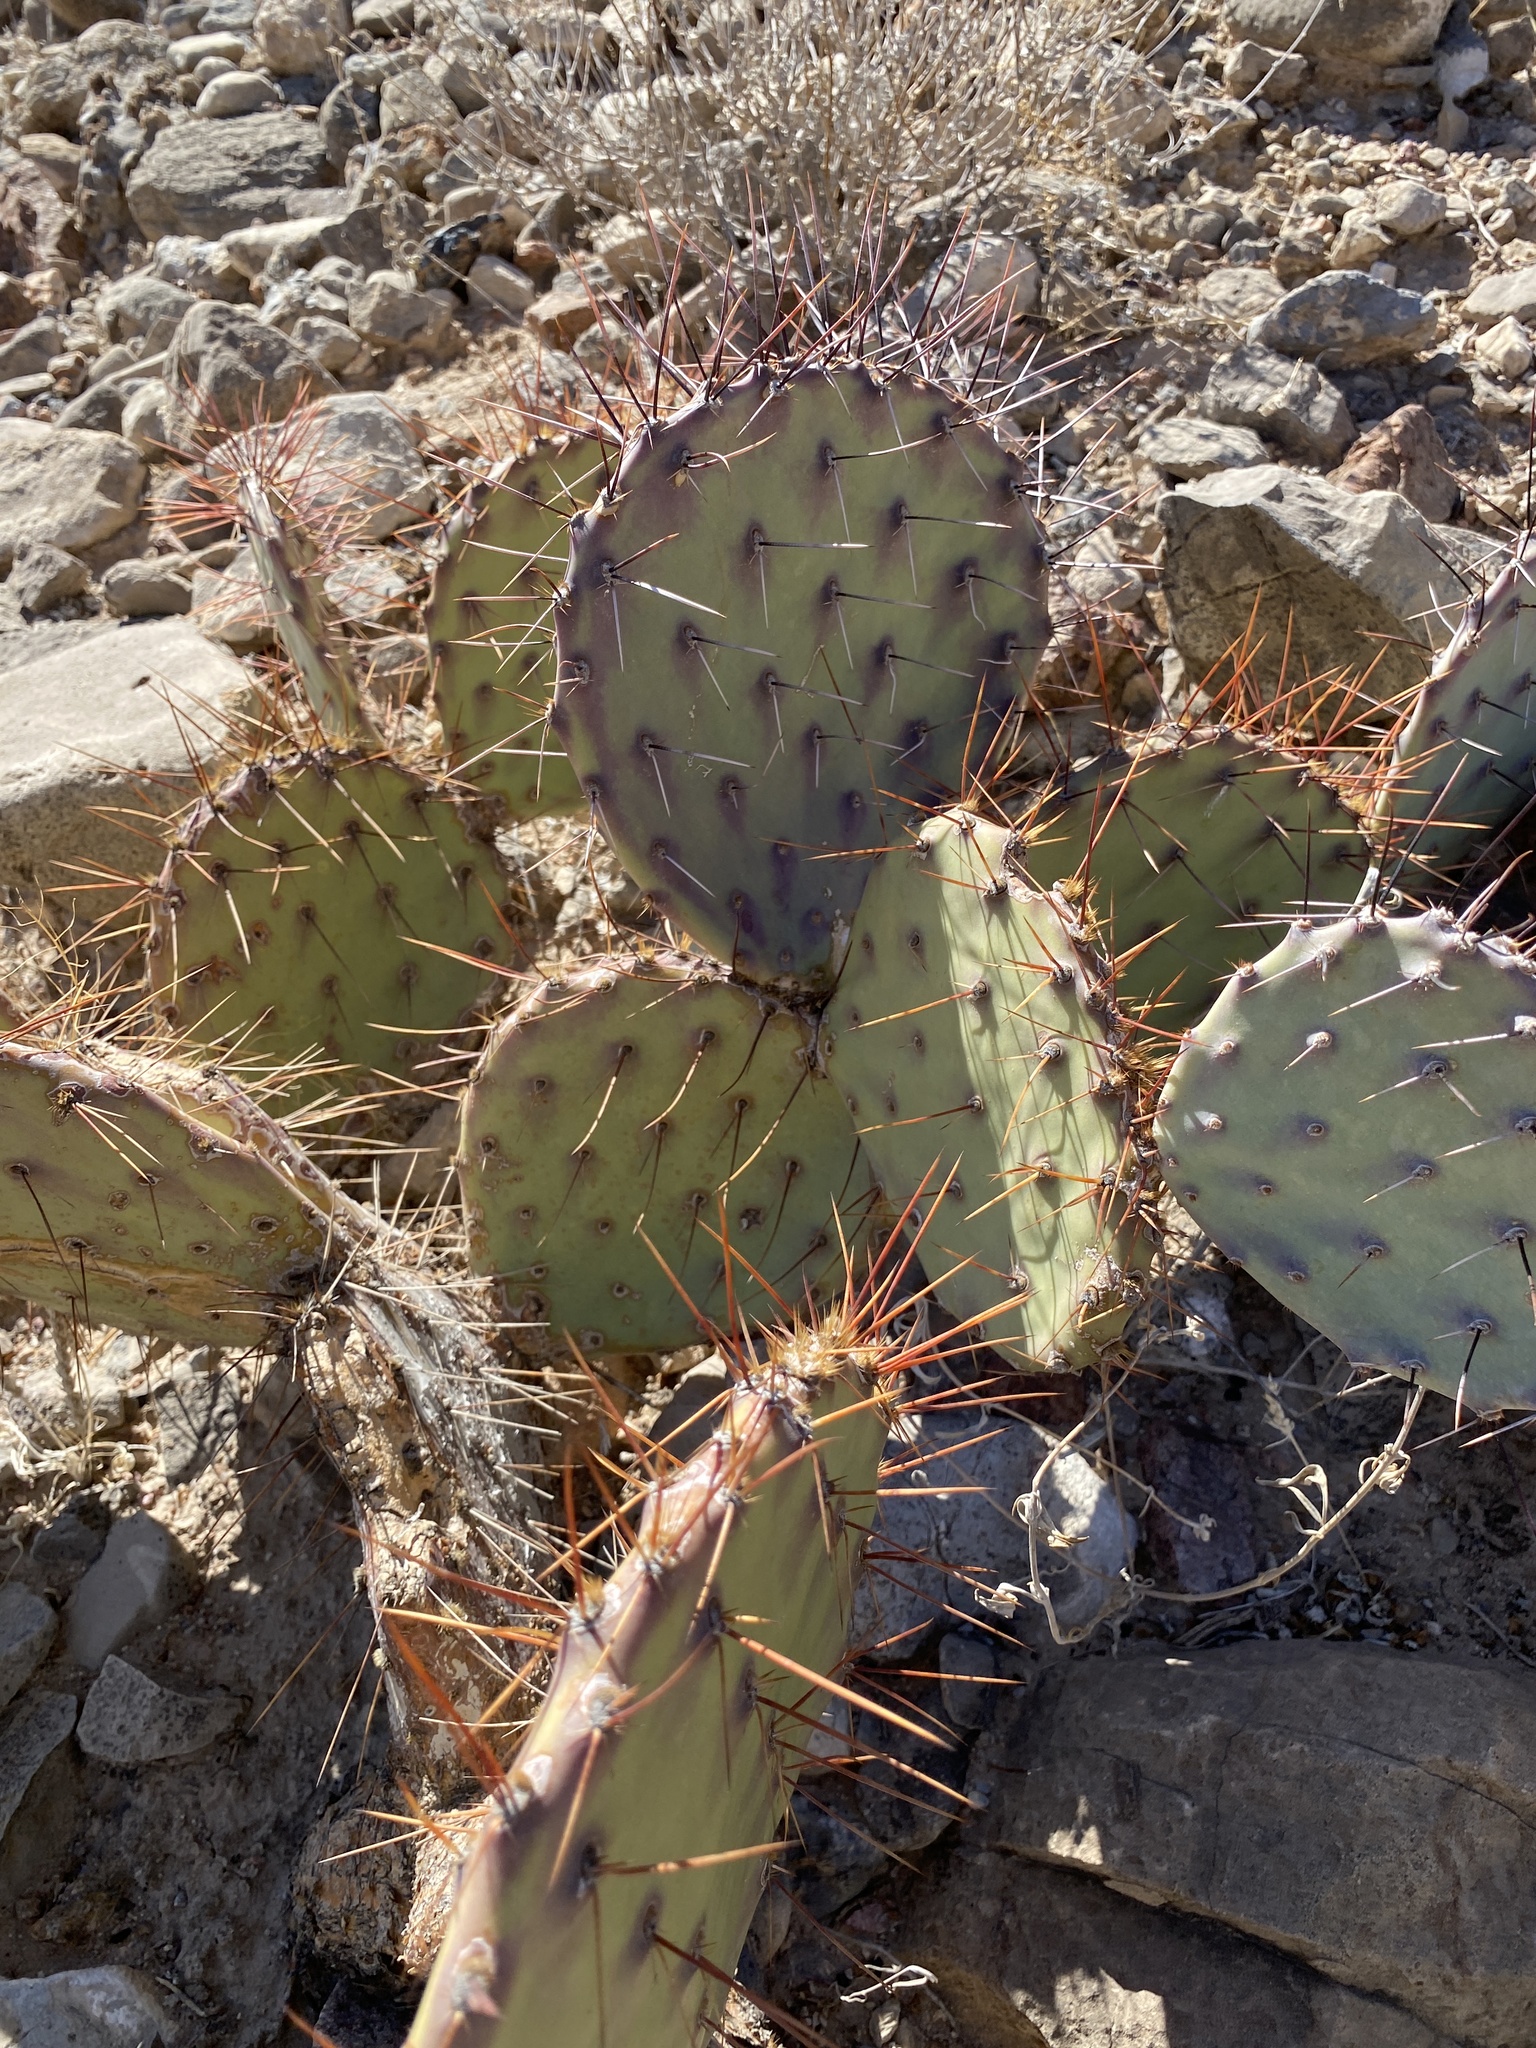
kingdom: Plantae
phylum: Tracheophyta
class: Magnoliopsida
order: Caryophyllales
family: Cactaceae
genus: Opuntia
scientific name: Opuntia phaeacantha
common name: New mexico prickly-pear
